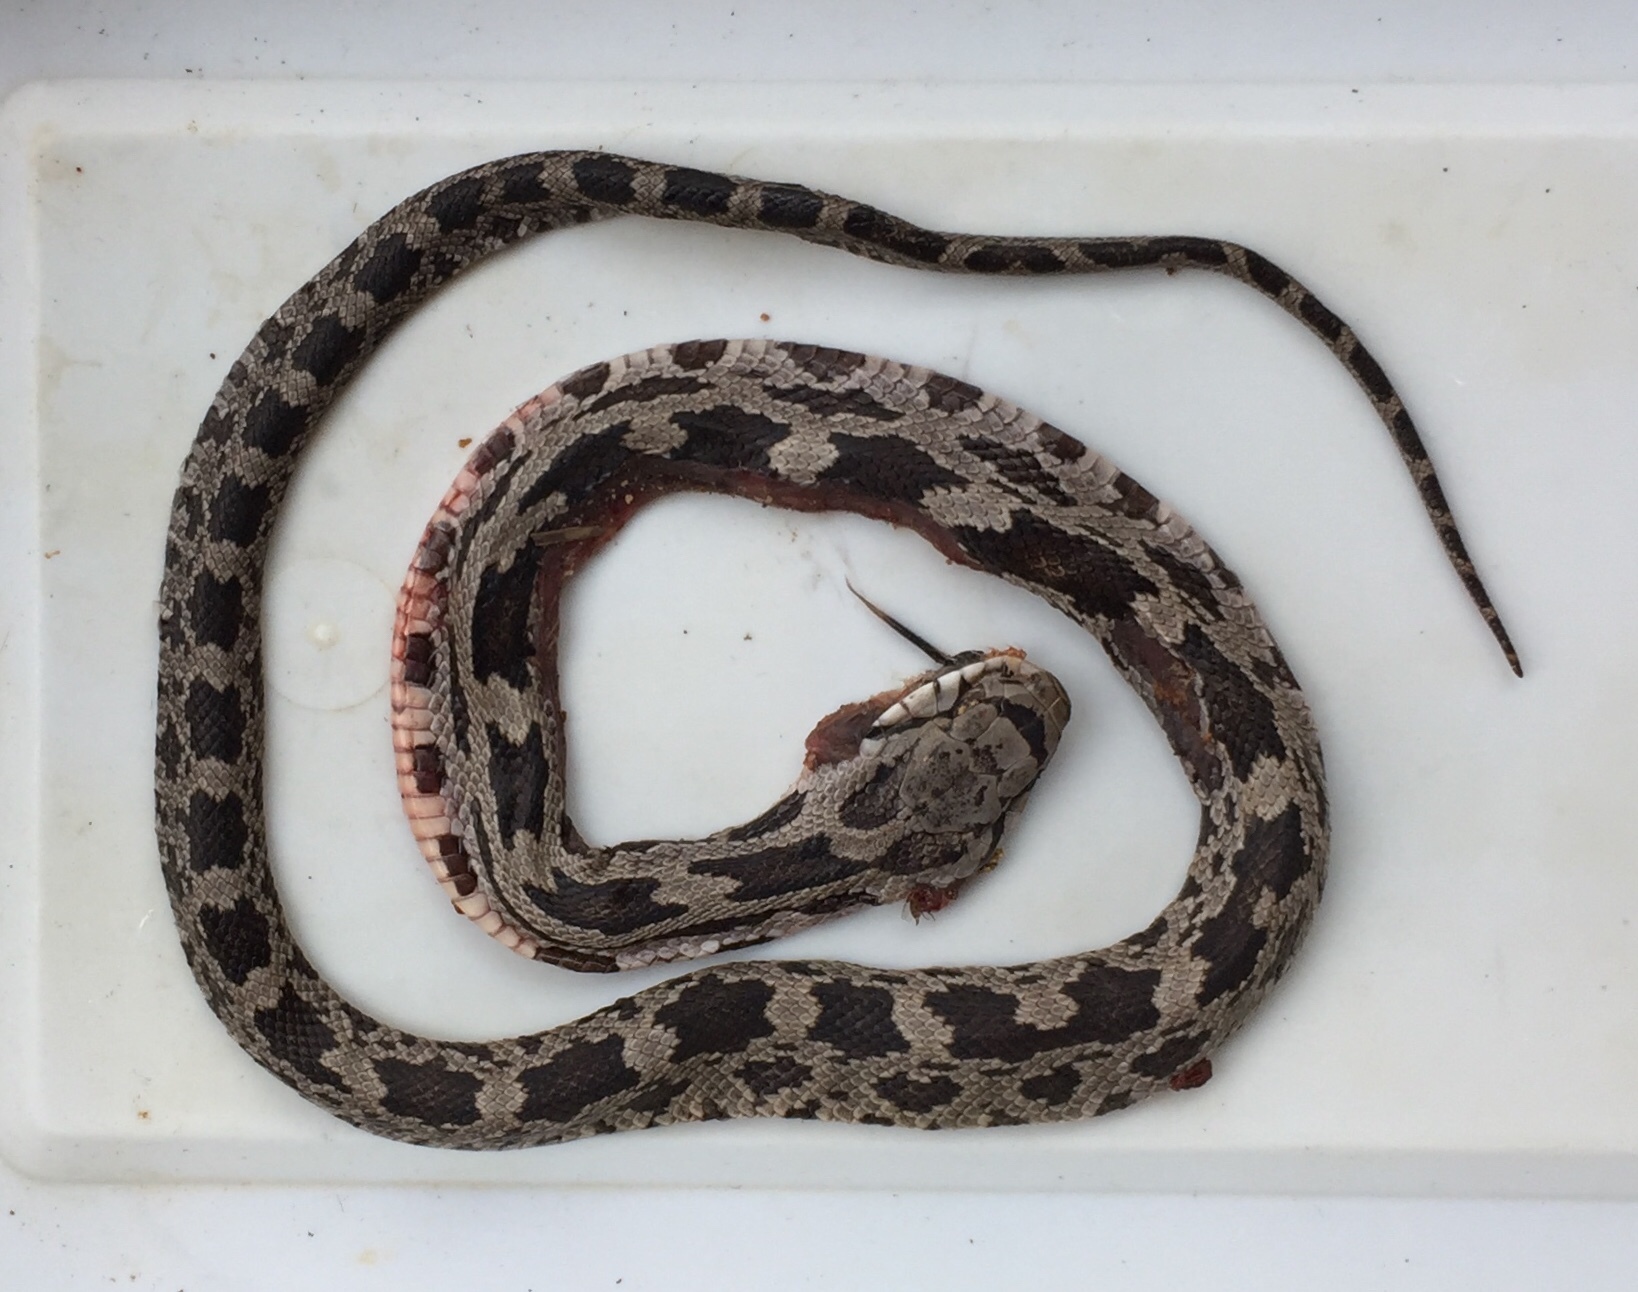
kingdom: Animalia
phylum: Chordata
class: Squamata
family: Colubridae
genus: Pantherophis
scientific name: Pantherophis alleghaniensis
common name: Eastern rat snake
